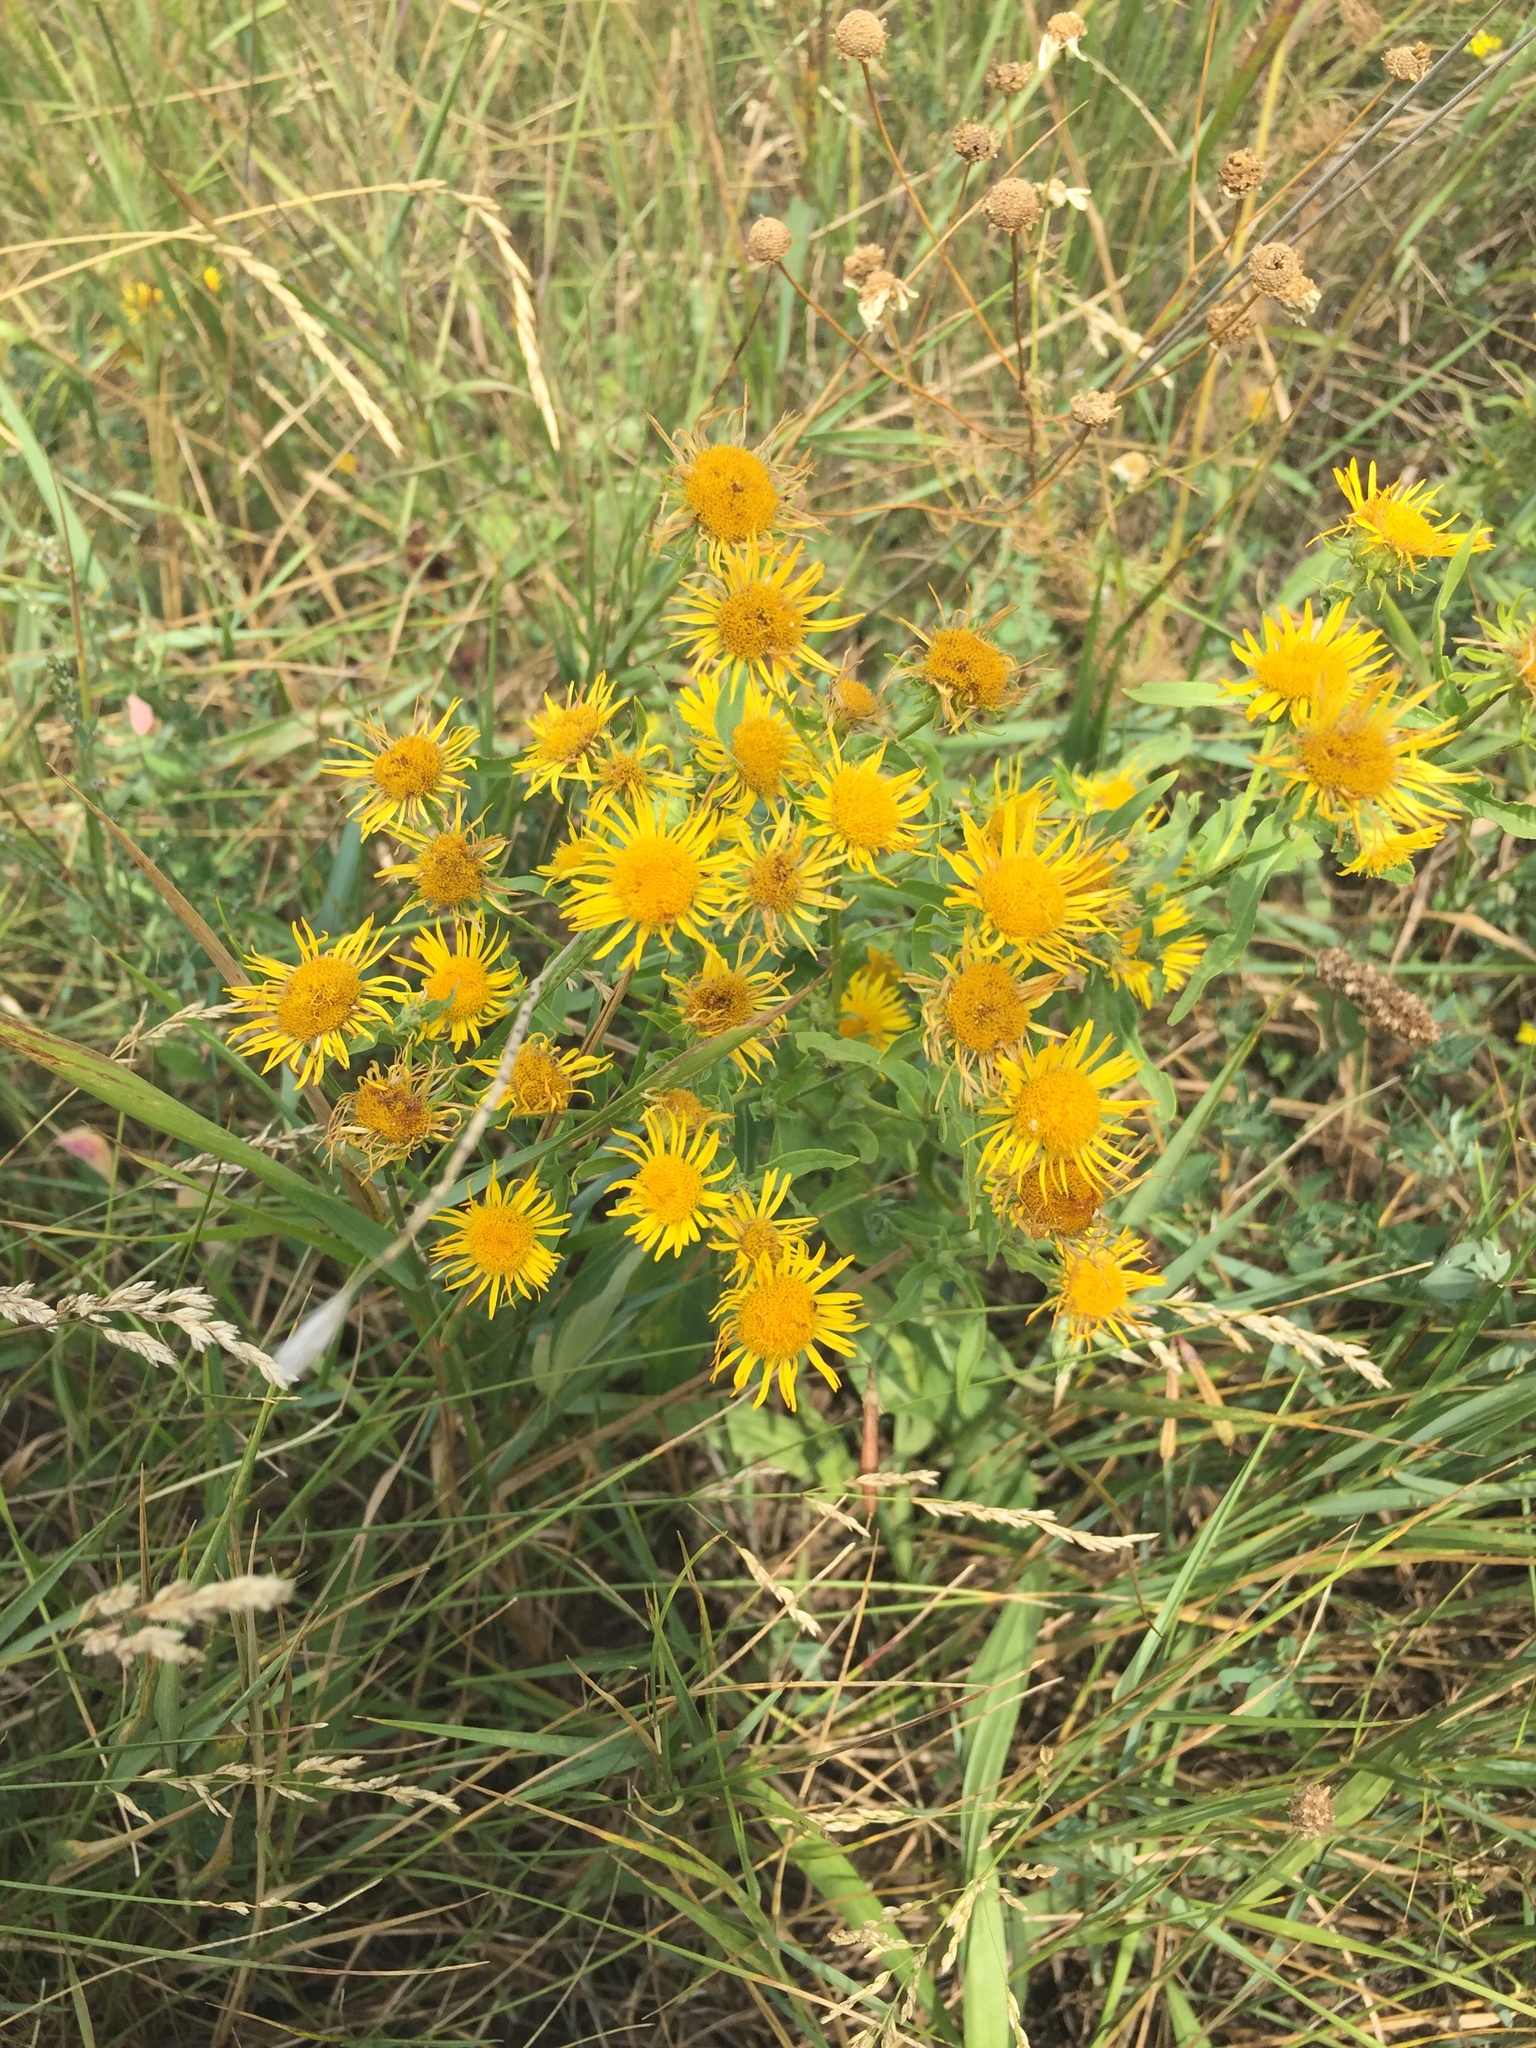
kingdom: Plantae
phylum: Tracheophyta
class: Magnoliopsida
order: Asterales
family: Asteraceae
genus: Pentanema
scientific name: Pentanema britannicum
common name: British elecampane
